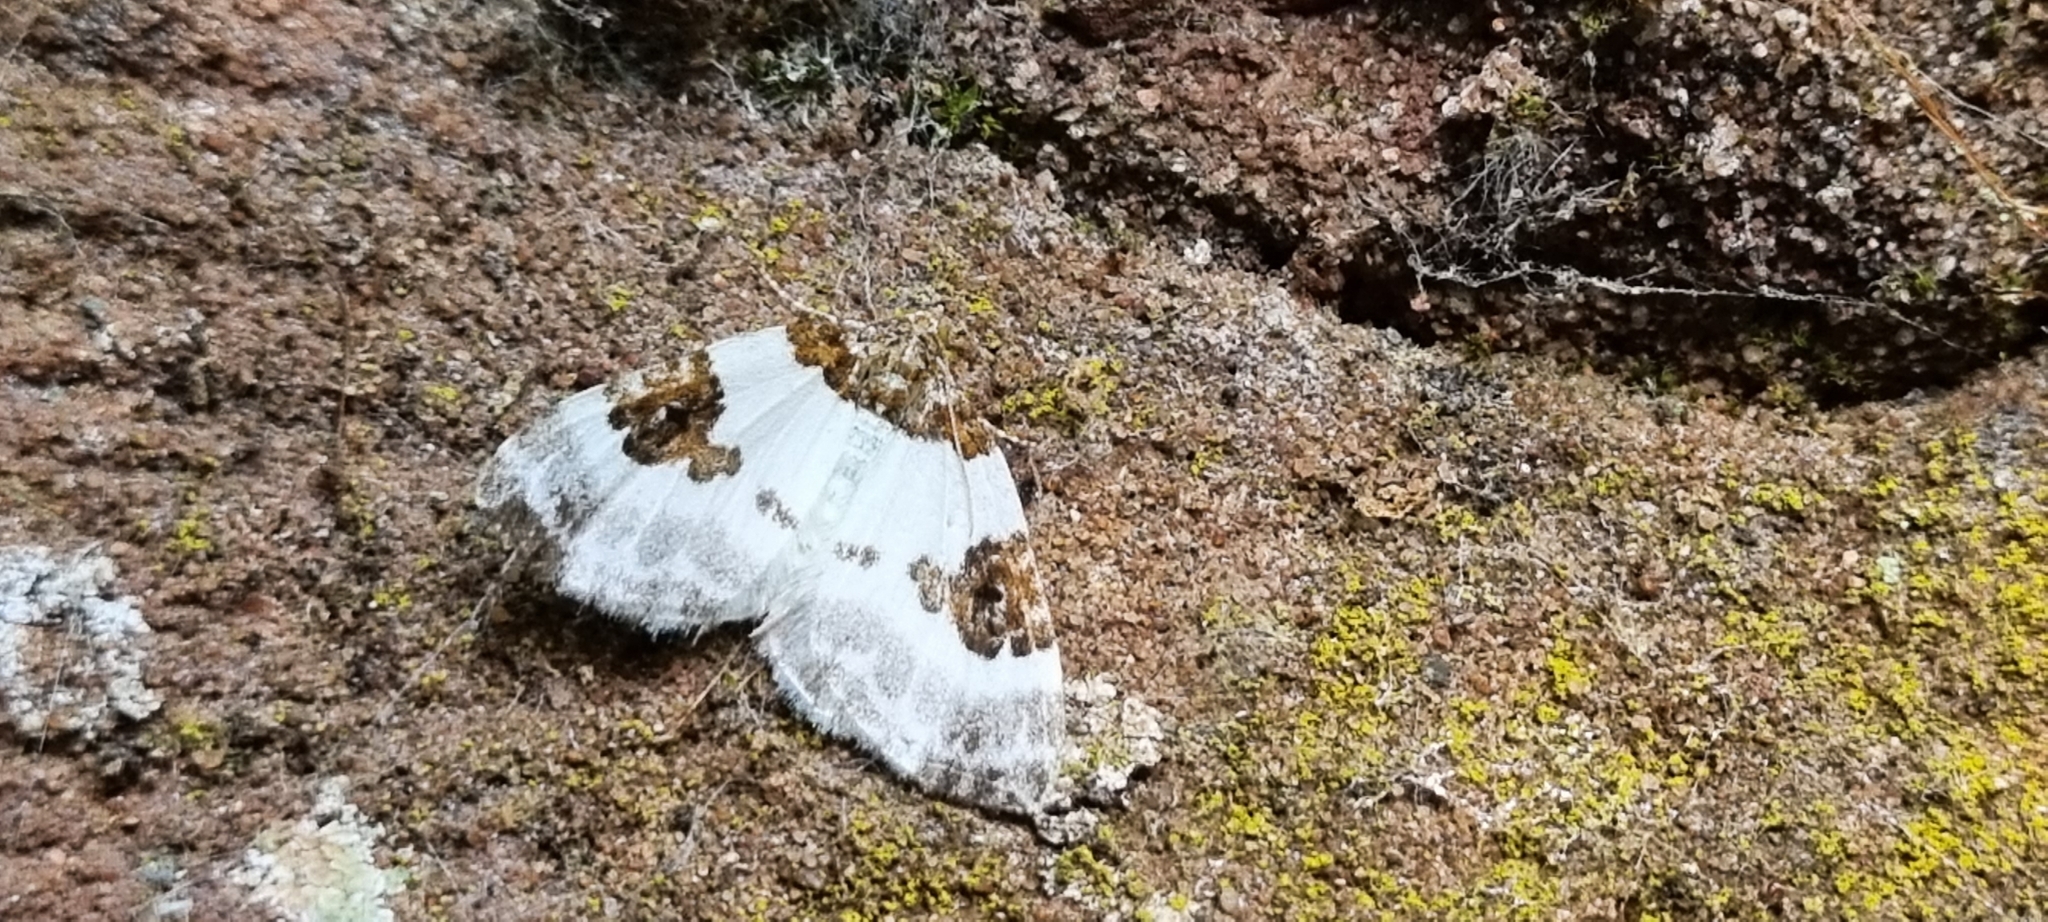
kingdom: Animalia
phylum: Arthropoda
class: Insecta
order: Lepidoptera
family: Geometridae
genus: Plemyria
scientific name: Plemyria rubiginata
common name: Blue-bordered carpet
